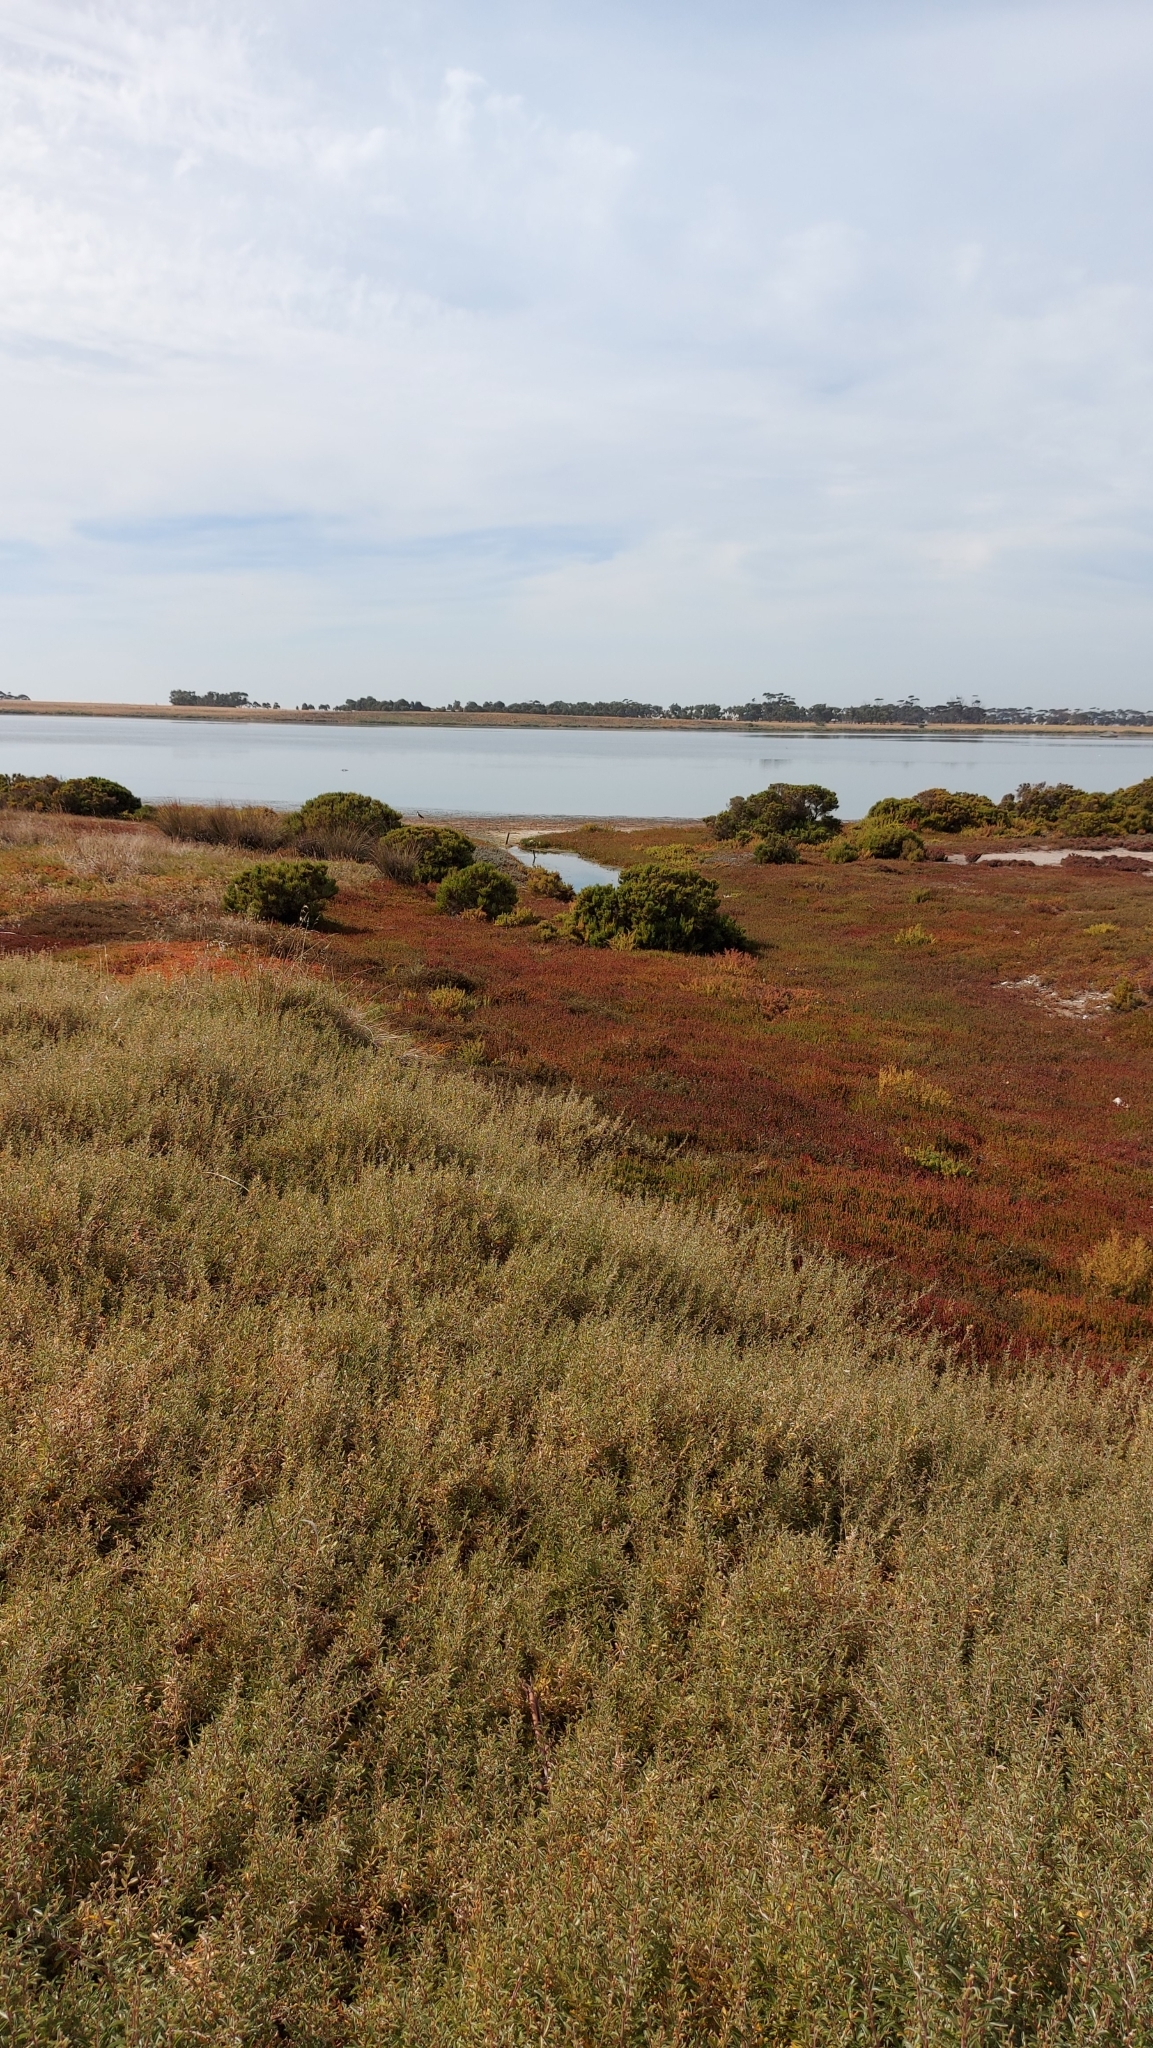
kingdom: Animalia
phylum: Chordata
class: Aves
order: Charadriiformes
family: Charadriidae
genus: Vanellus
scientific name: Vanellus miles
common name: Masked lapwing
